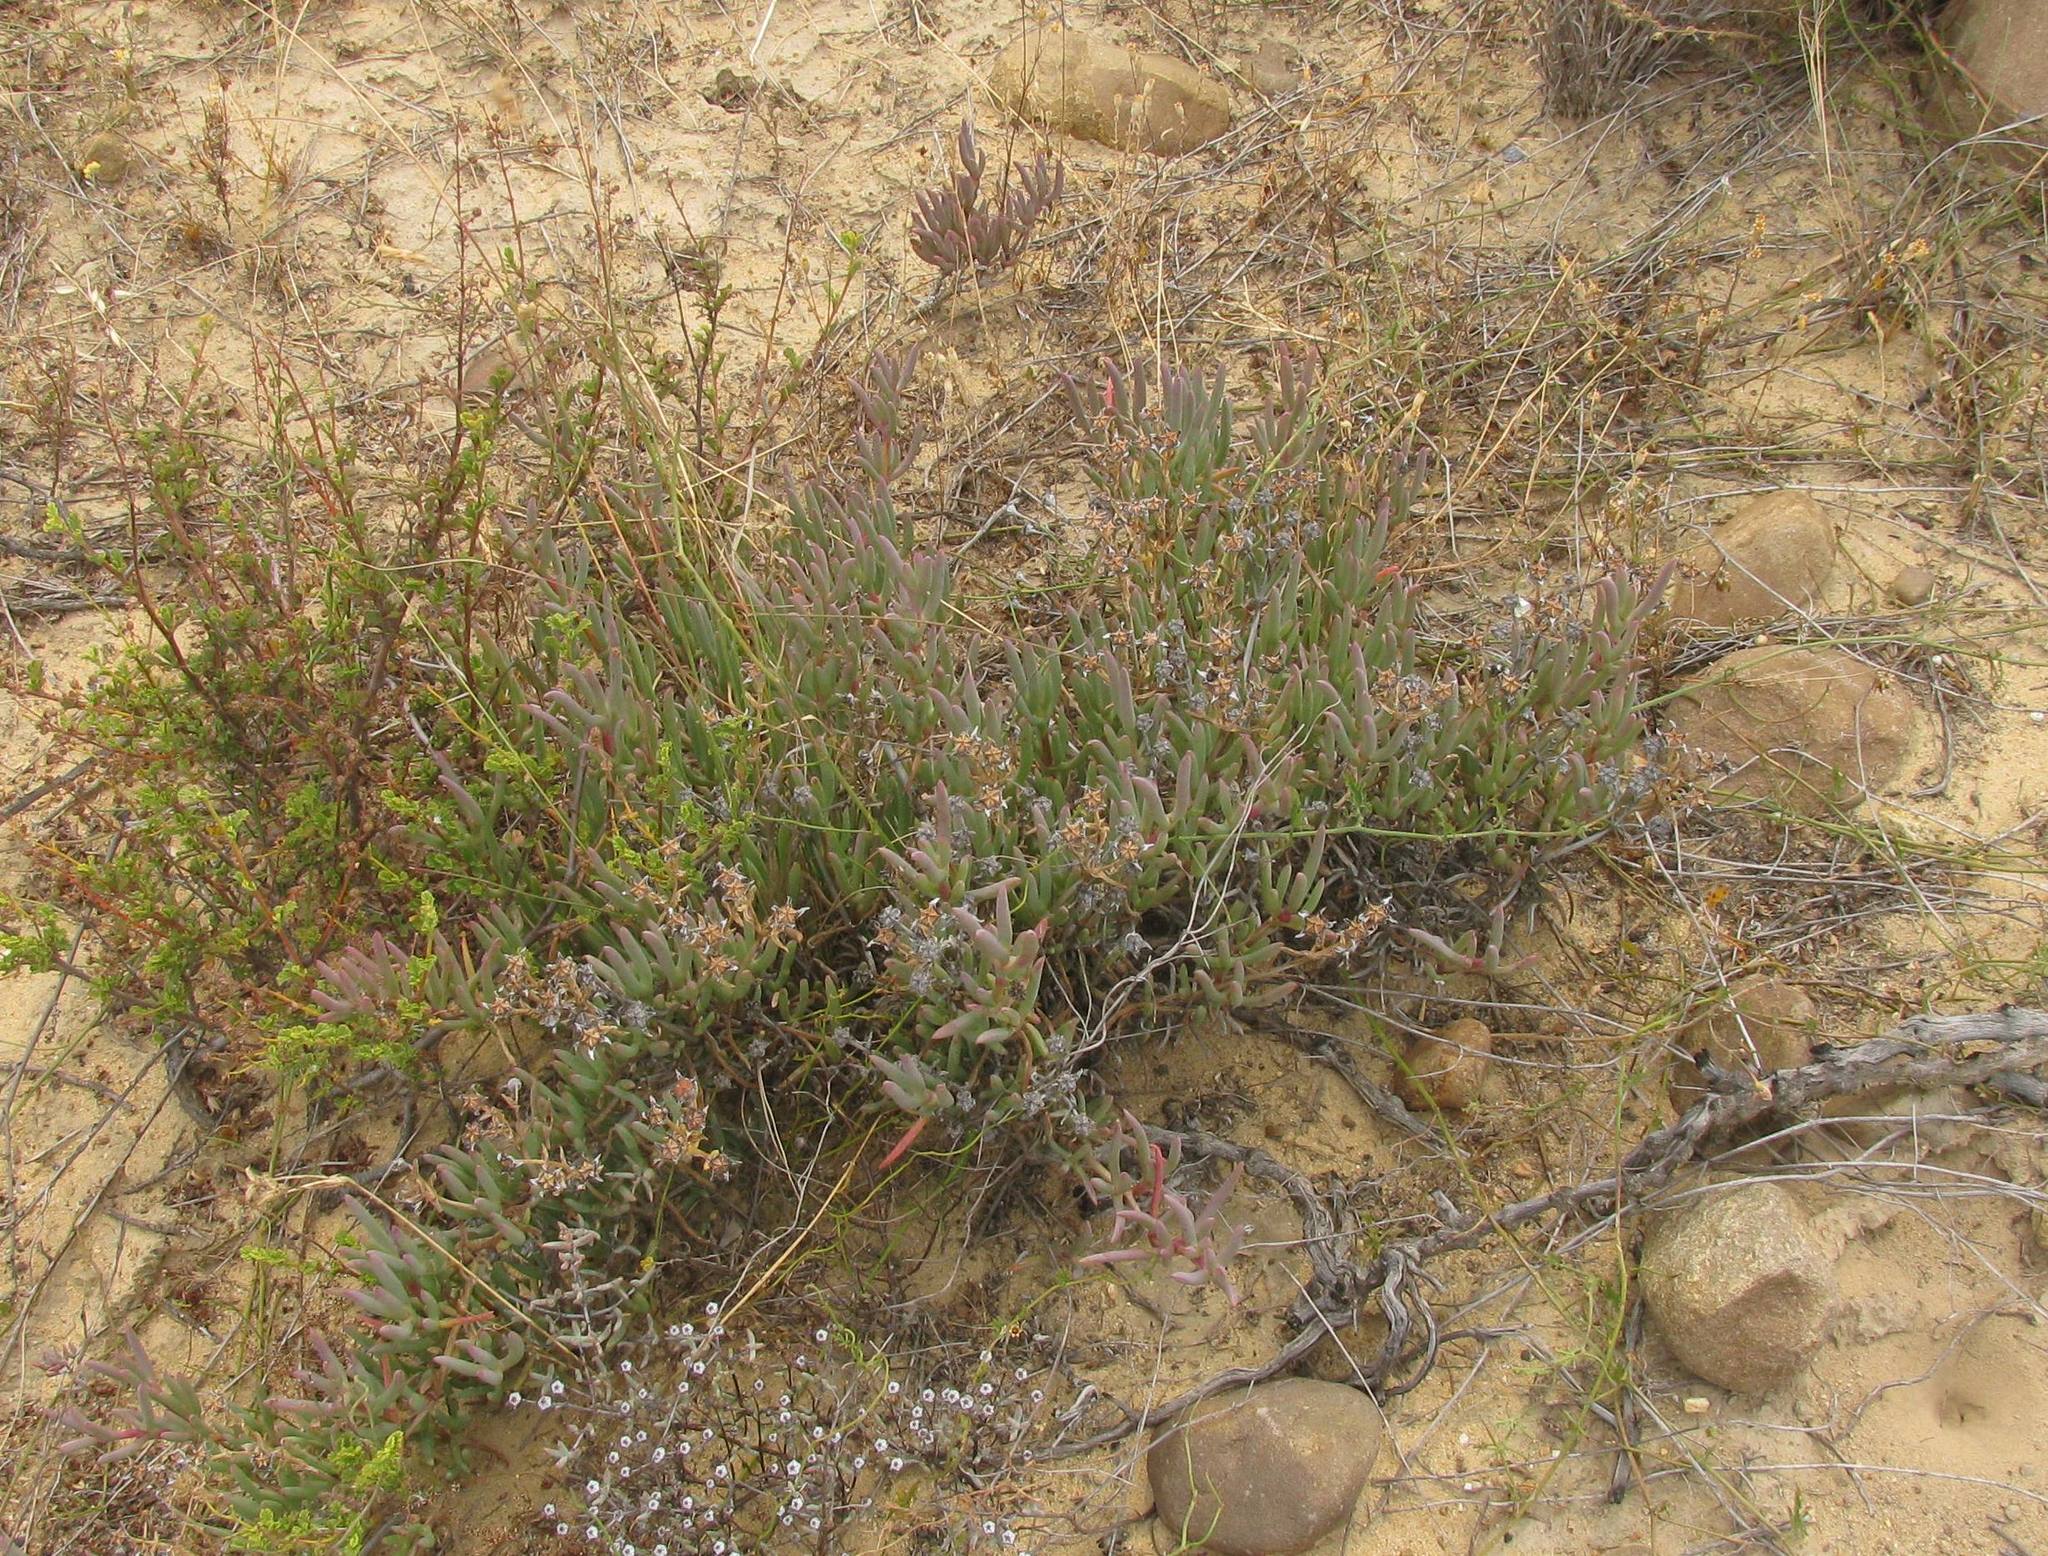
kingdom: Plantae
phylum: Tracheophyta
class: Magnoliopsida
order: Caryophyllales
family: Aizoaceae
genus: Ruschia
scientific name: Ruschia caroli
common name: Shrubby dewplant
